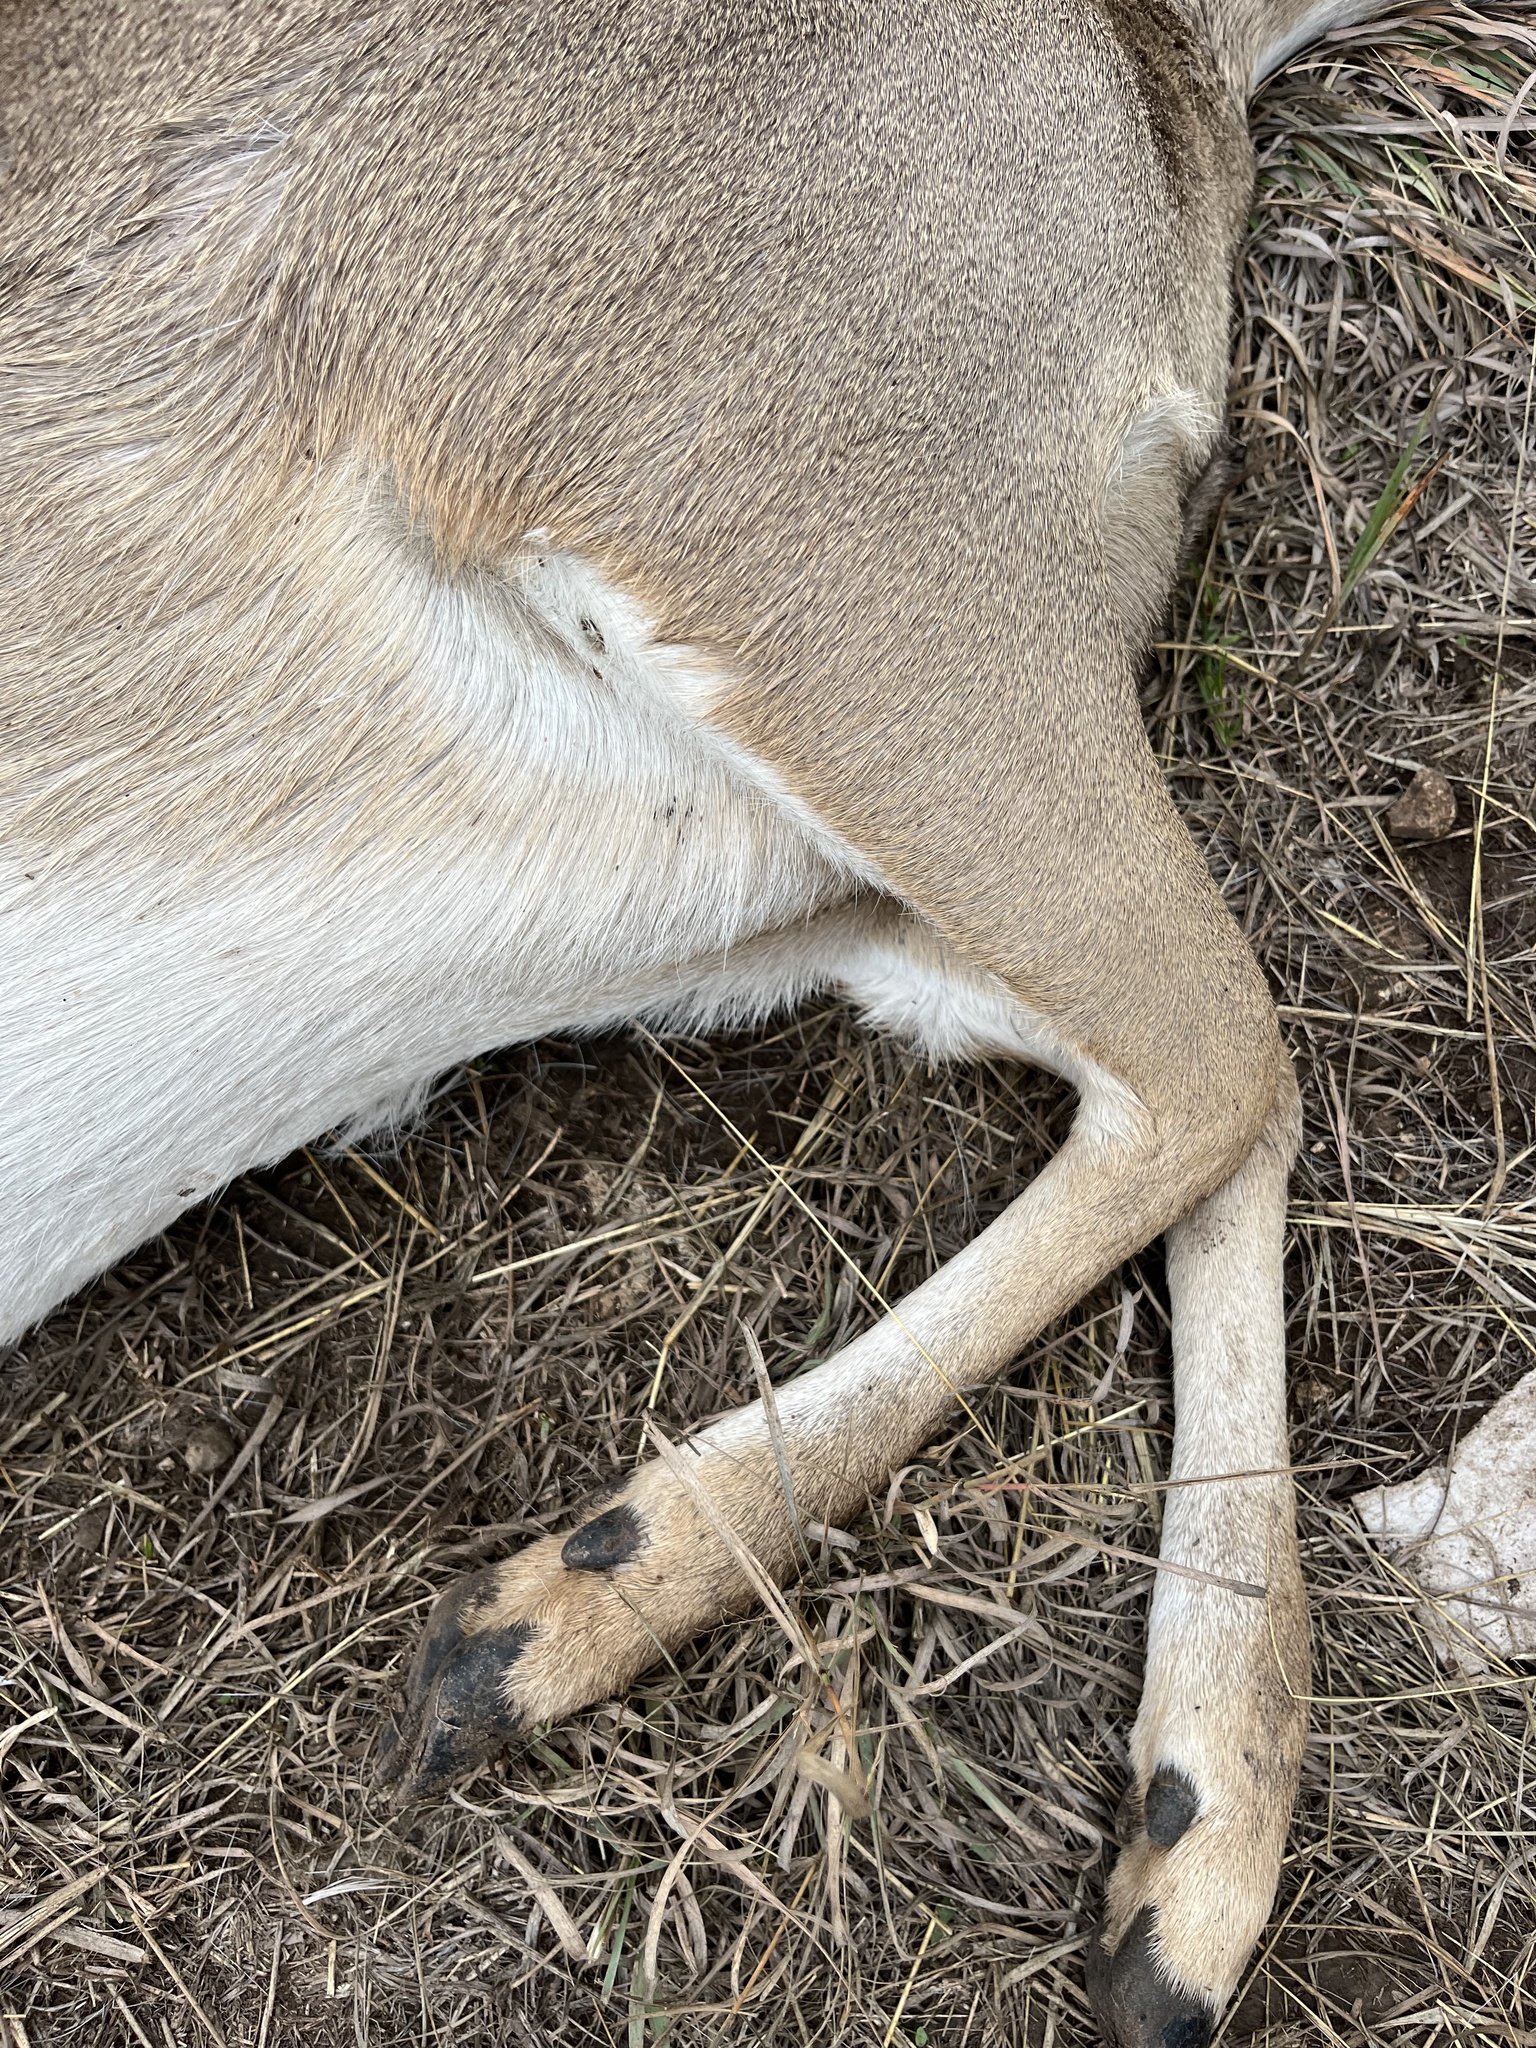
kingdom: Animalia
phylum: Chordata
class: Mammalia
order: Artiodactyla
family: Cervidae
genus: Odocoileus
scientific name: Odocoileus virginianus
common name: White-tailed deer
